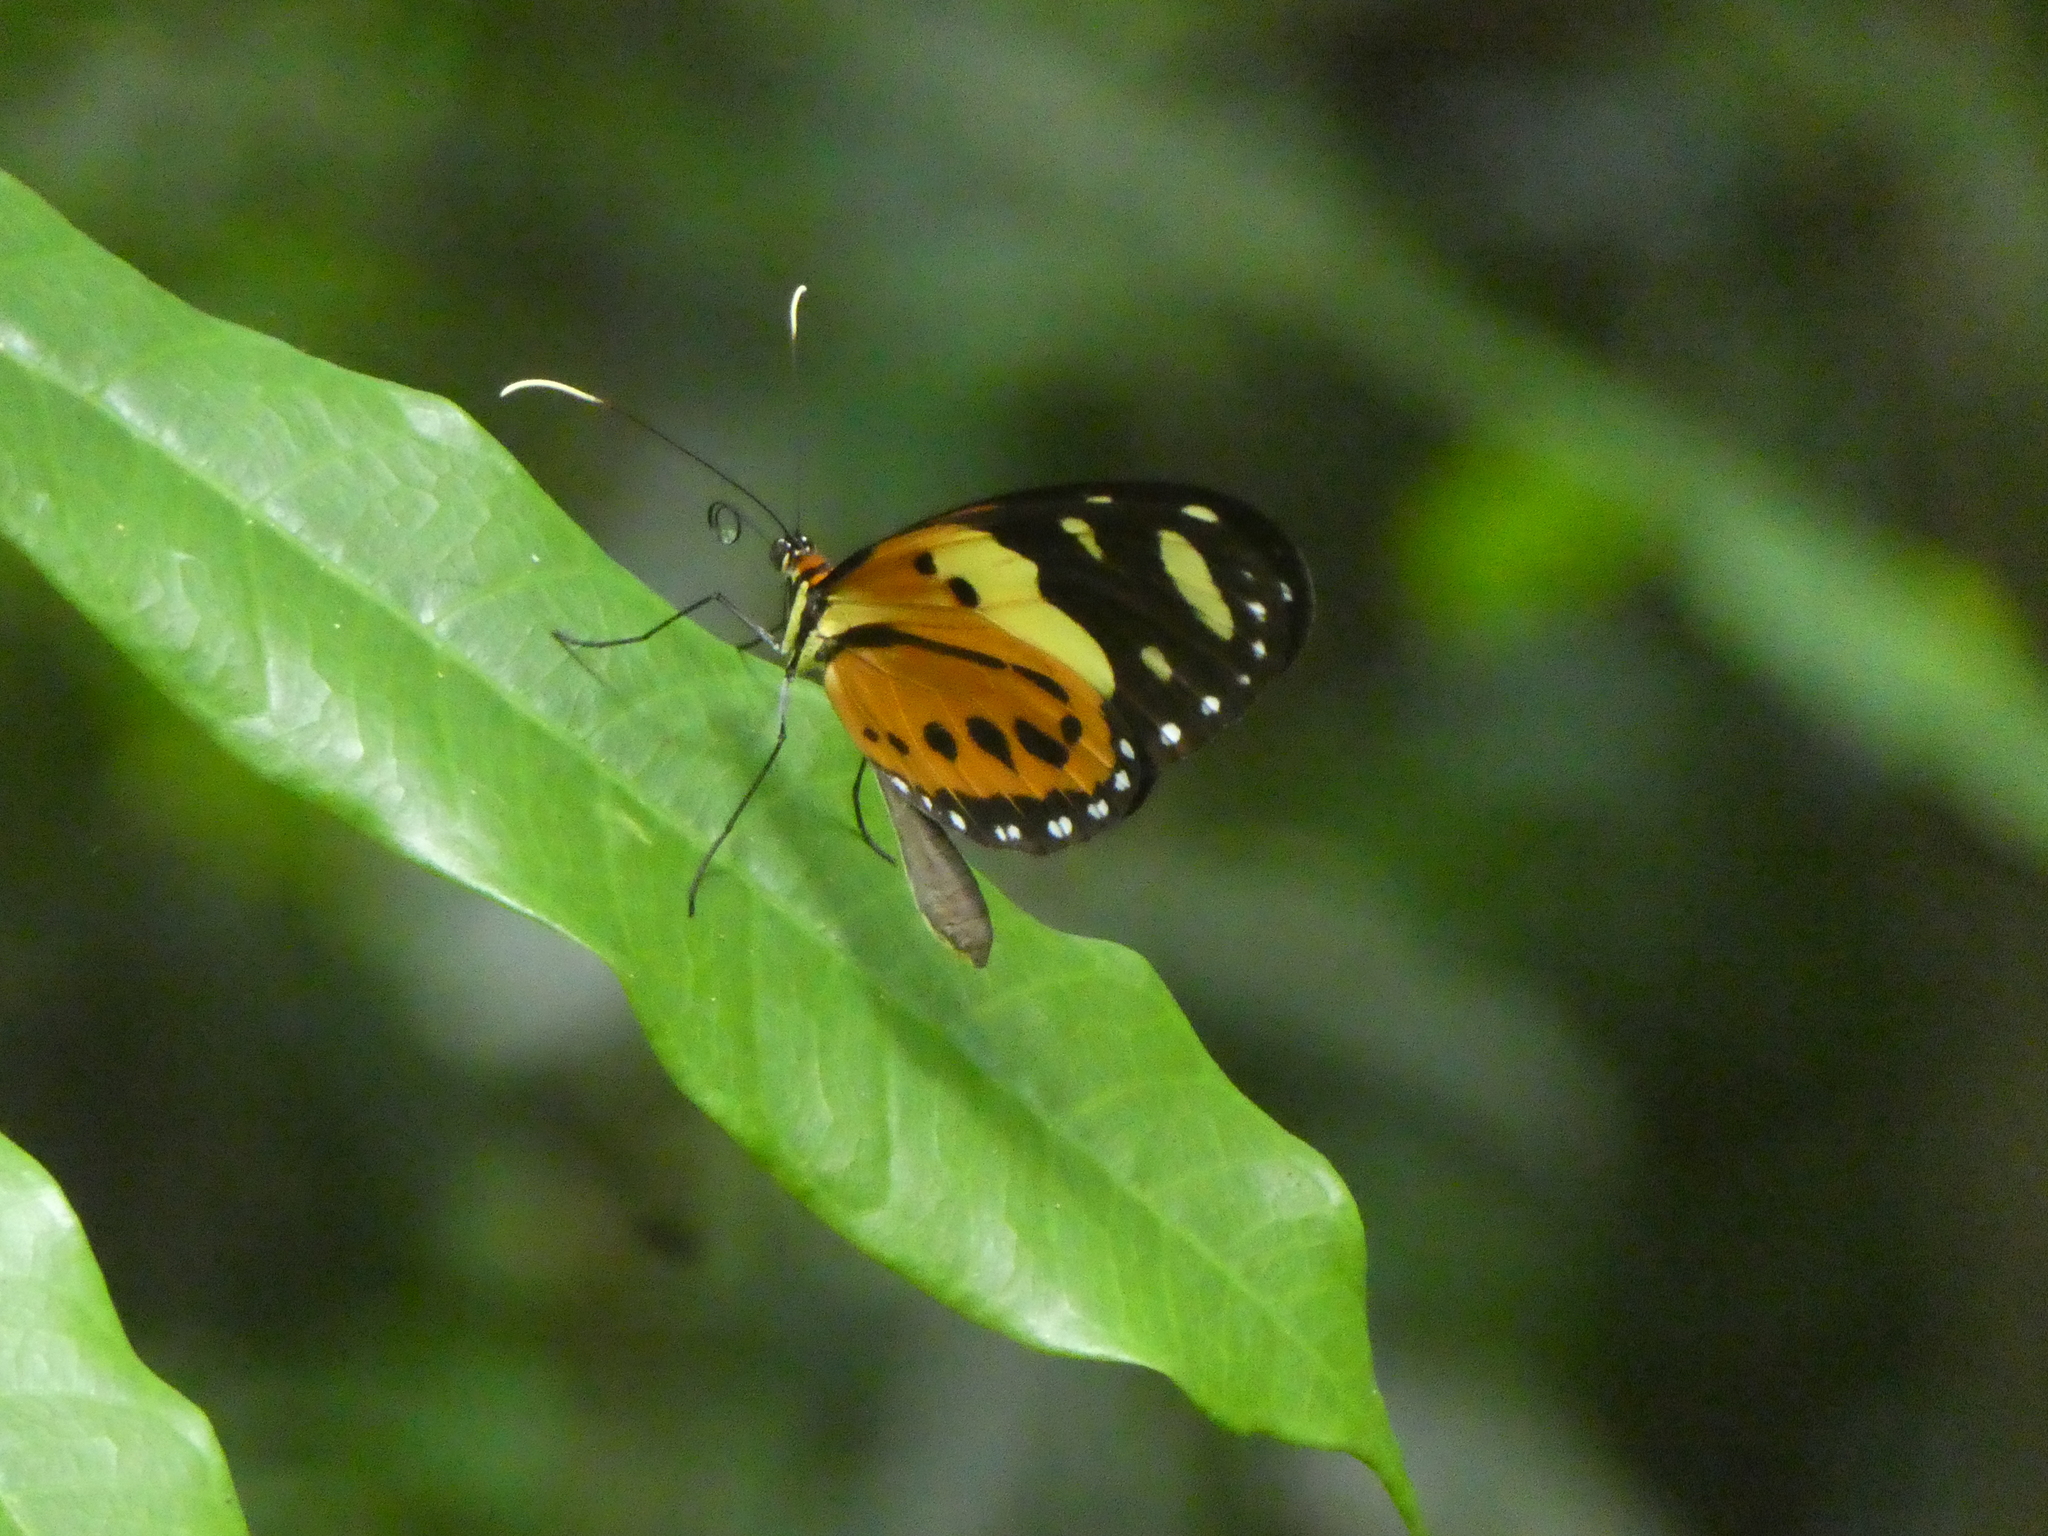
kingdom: Animalia
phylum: Arthropoda
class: Insecta
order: Lepidoptera
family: Nymphalidae
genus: Melinaea
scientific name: Melinaea ludovica
